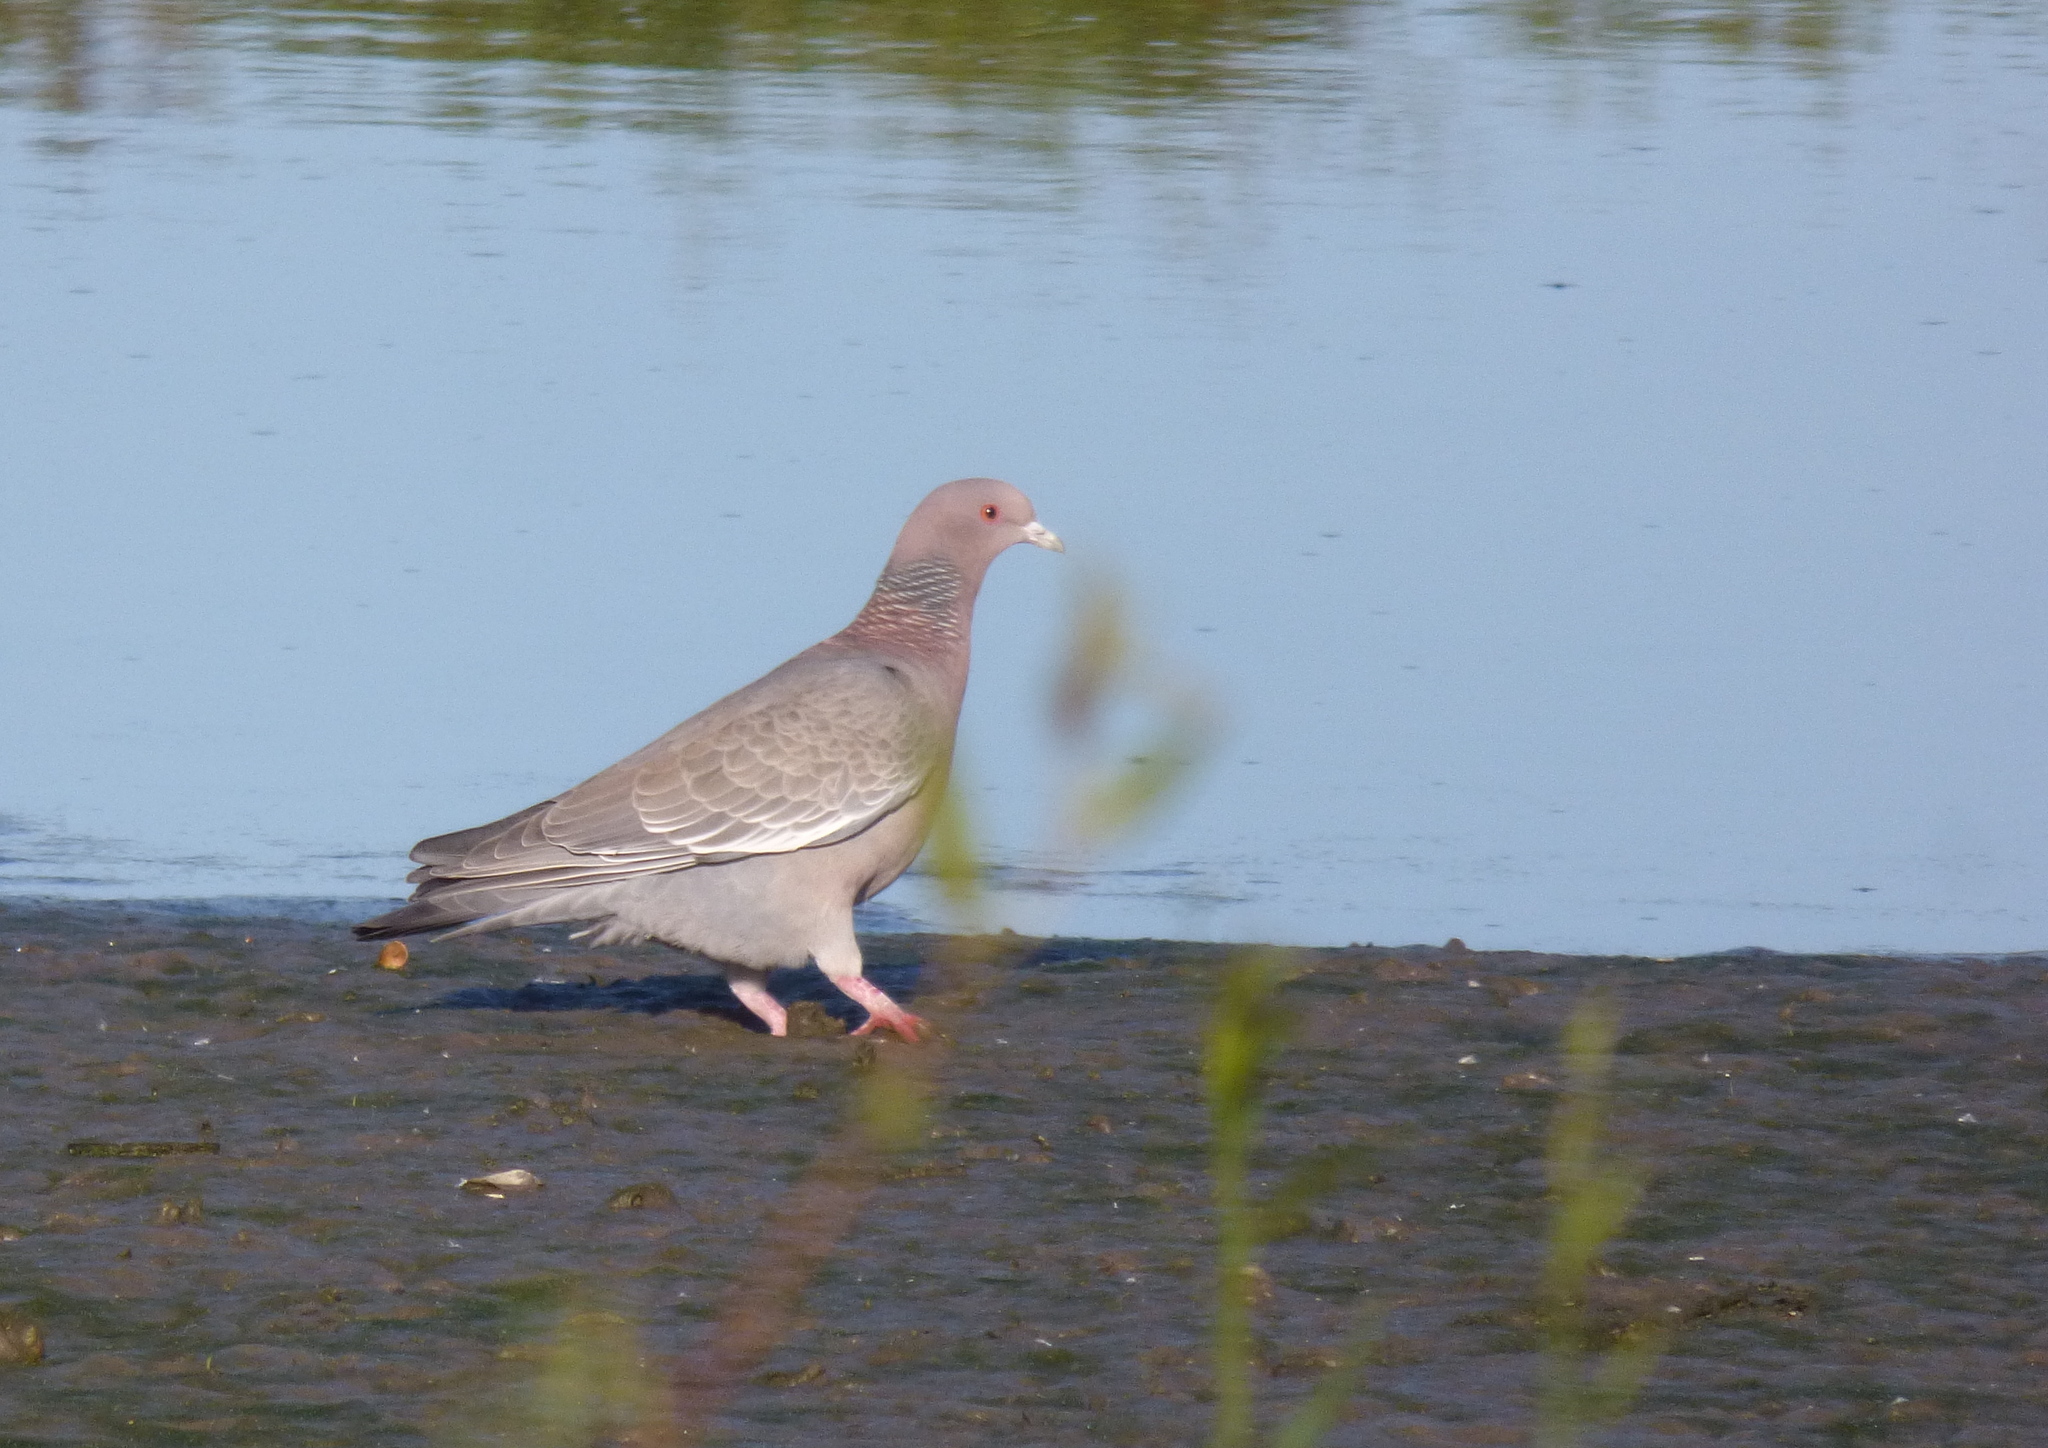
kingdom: Animalia
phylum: Chordata
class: Aves
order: Columbiformes
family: Columbidae
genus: Patagioenas
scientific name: Patagioenas picazuro
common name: Picazuro pigeon
